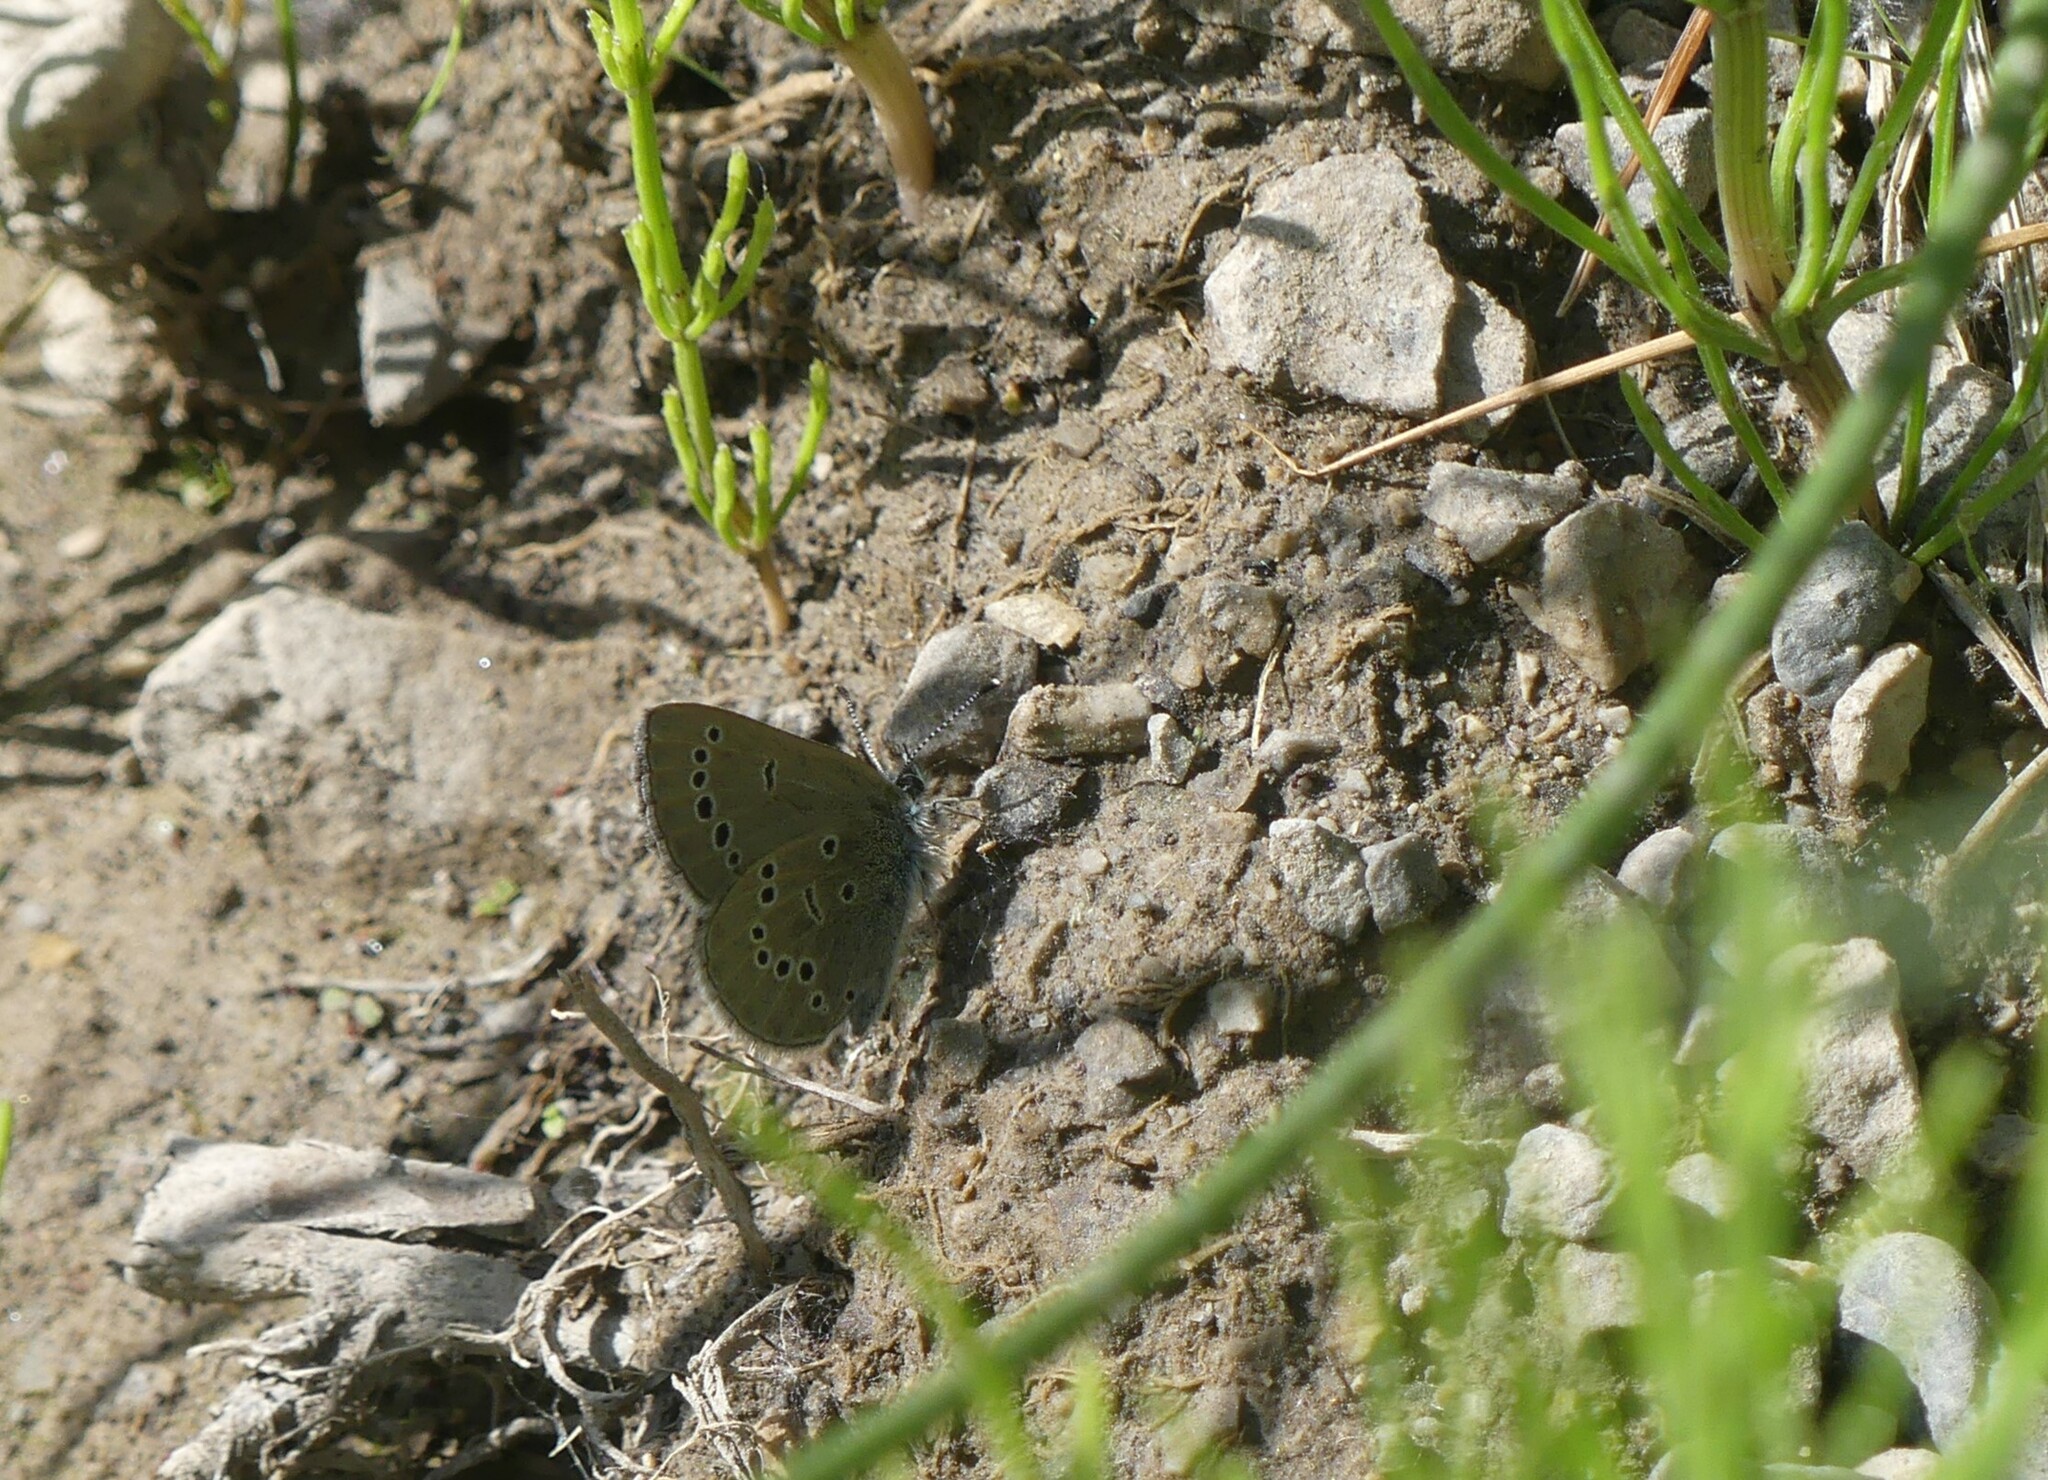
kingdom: Animalia
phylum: Arthropoda
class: Insecta
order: Lepidoptera
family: Lycaenidae
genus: Glaucopsyche
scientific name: Glaucopsyche lygdamus
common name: Silvery blue
